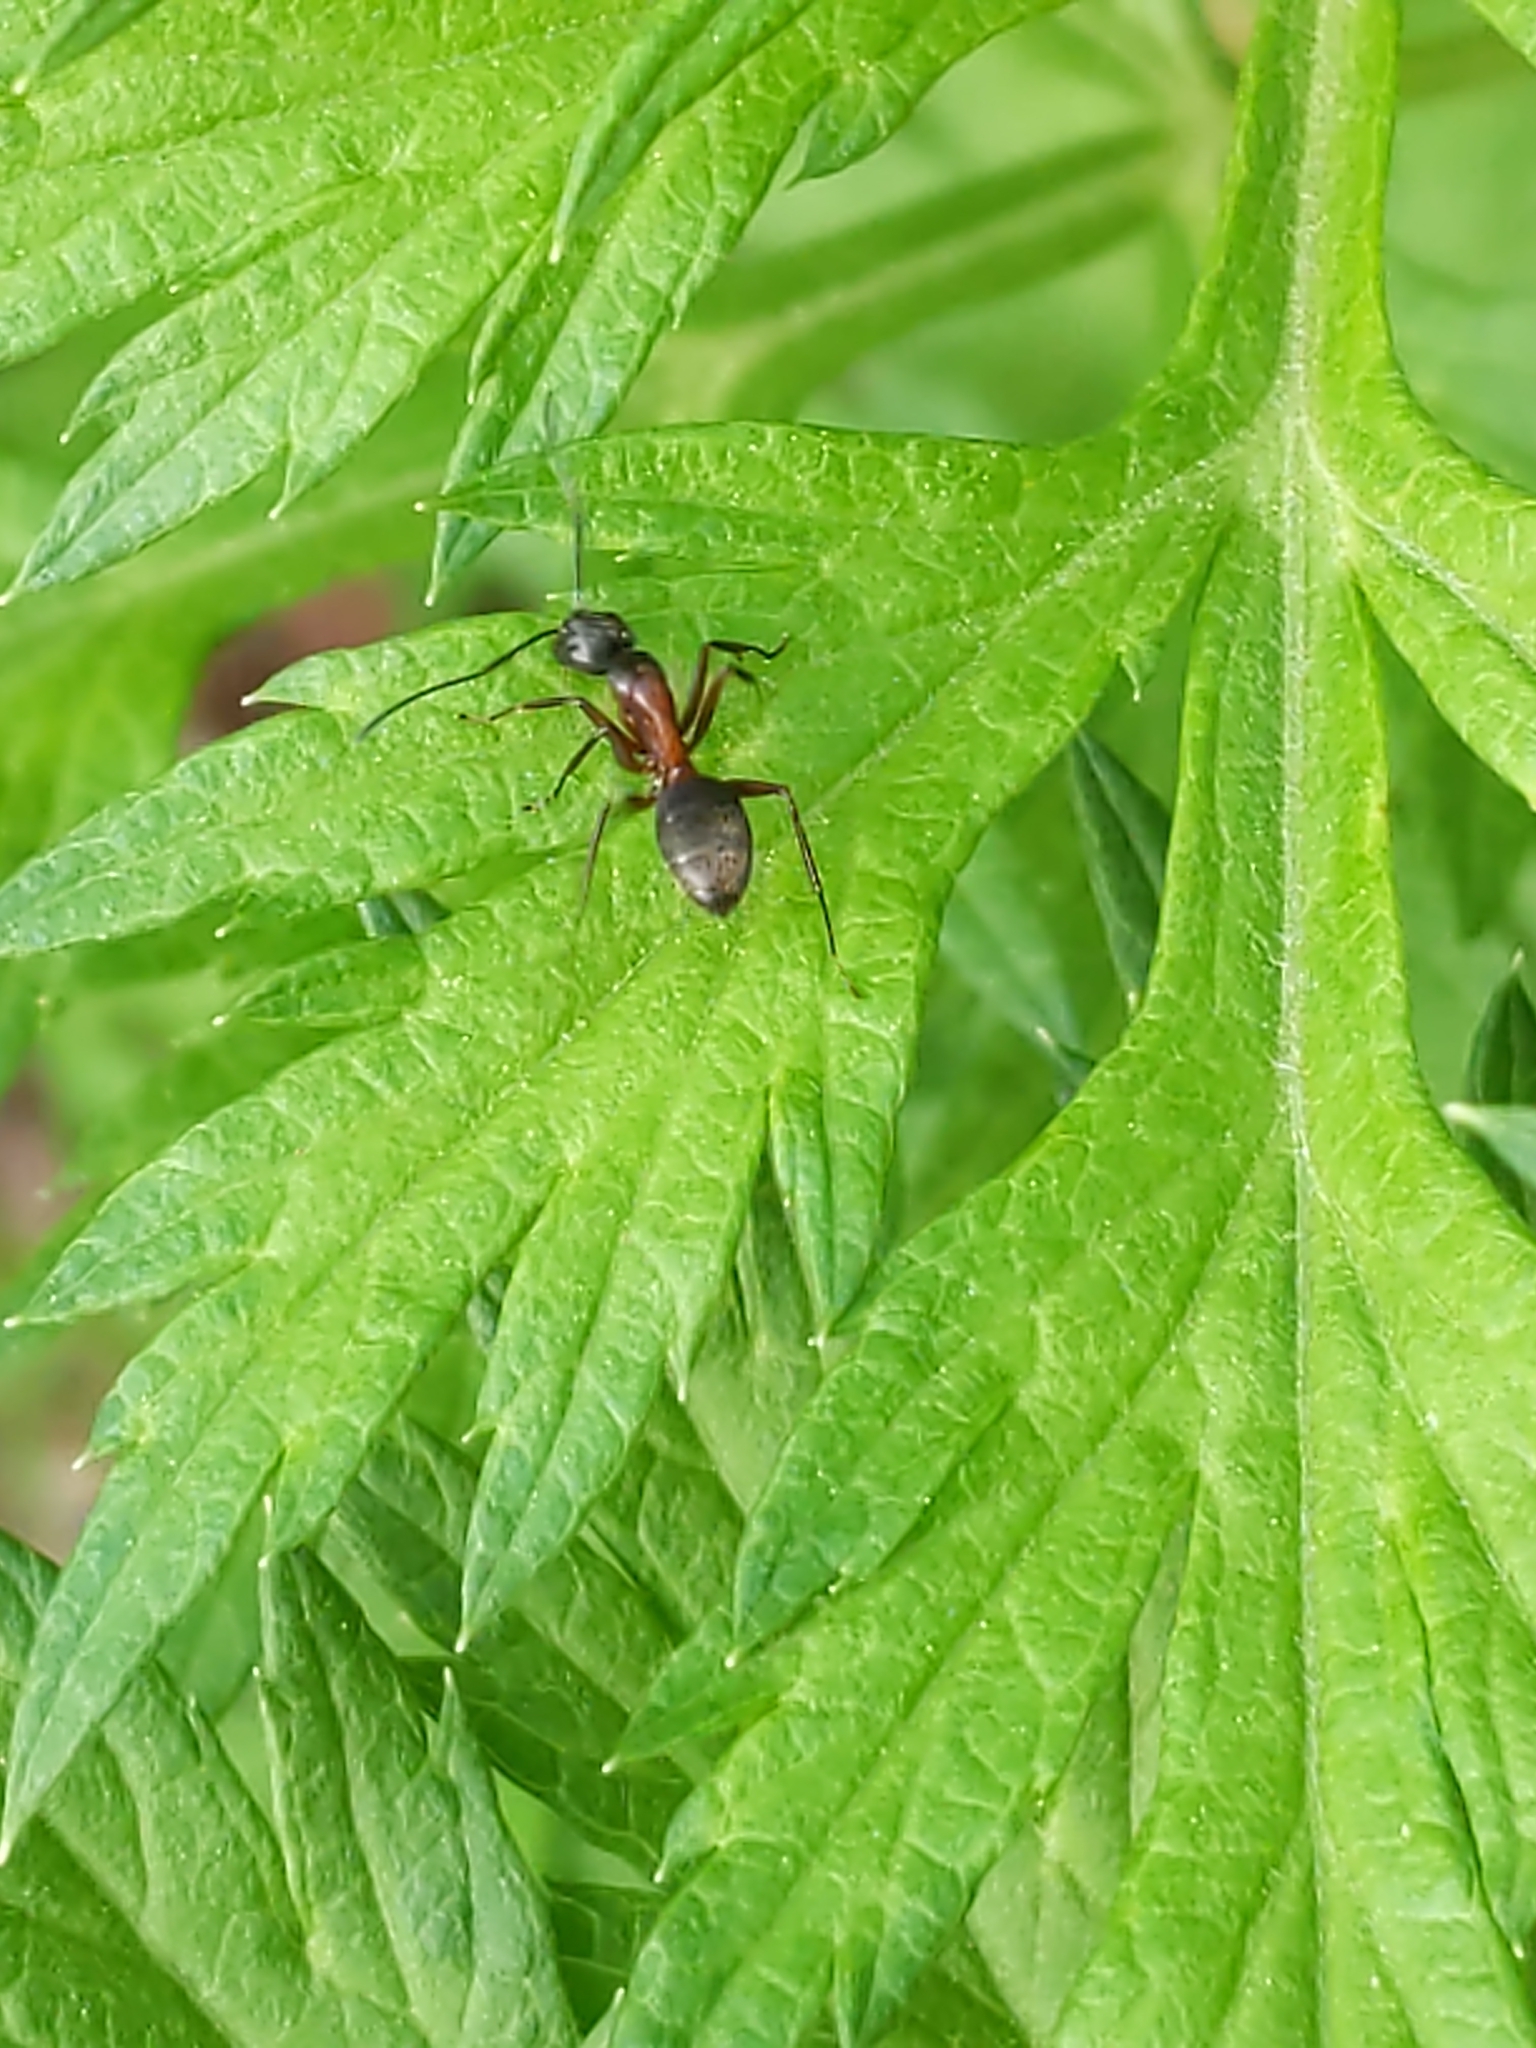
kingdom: Animalia
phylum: Arthropoda
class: Insecta
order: Hymenoptera
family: Formicidae
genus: Camponotus
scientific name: Camponotus chromaiodes
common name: Red carpenter ant
